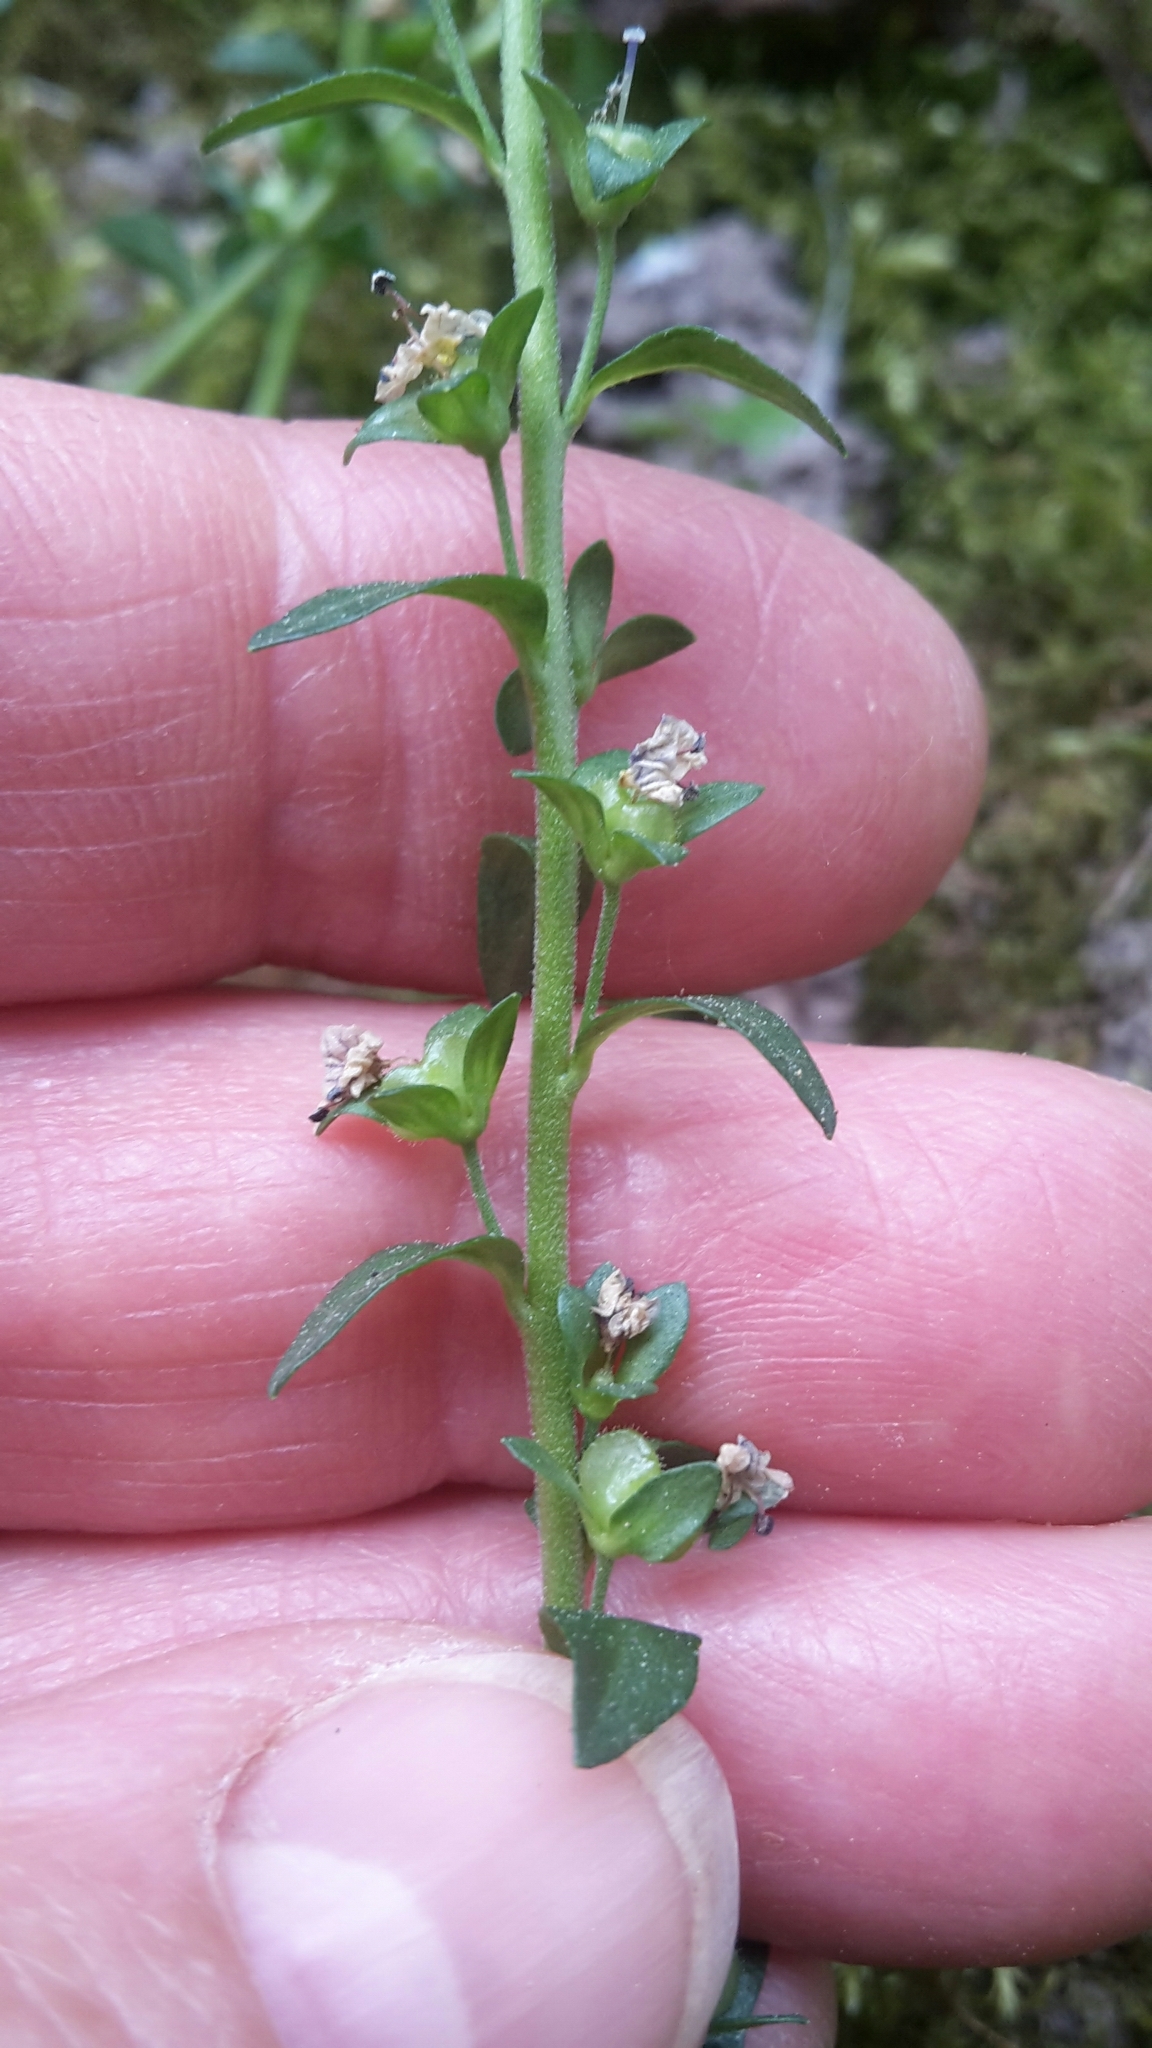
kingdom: Plantae
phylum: Tracheophyta
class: Magnoliopsida
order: Lamiales
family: Plantaginaceae
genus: Veronica
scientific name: Veronica serpyllifolia
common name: Thyme-leaved speedwell
